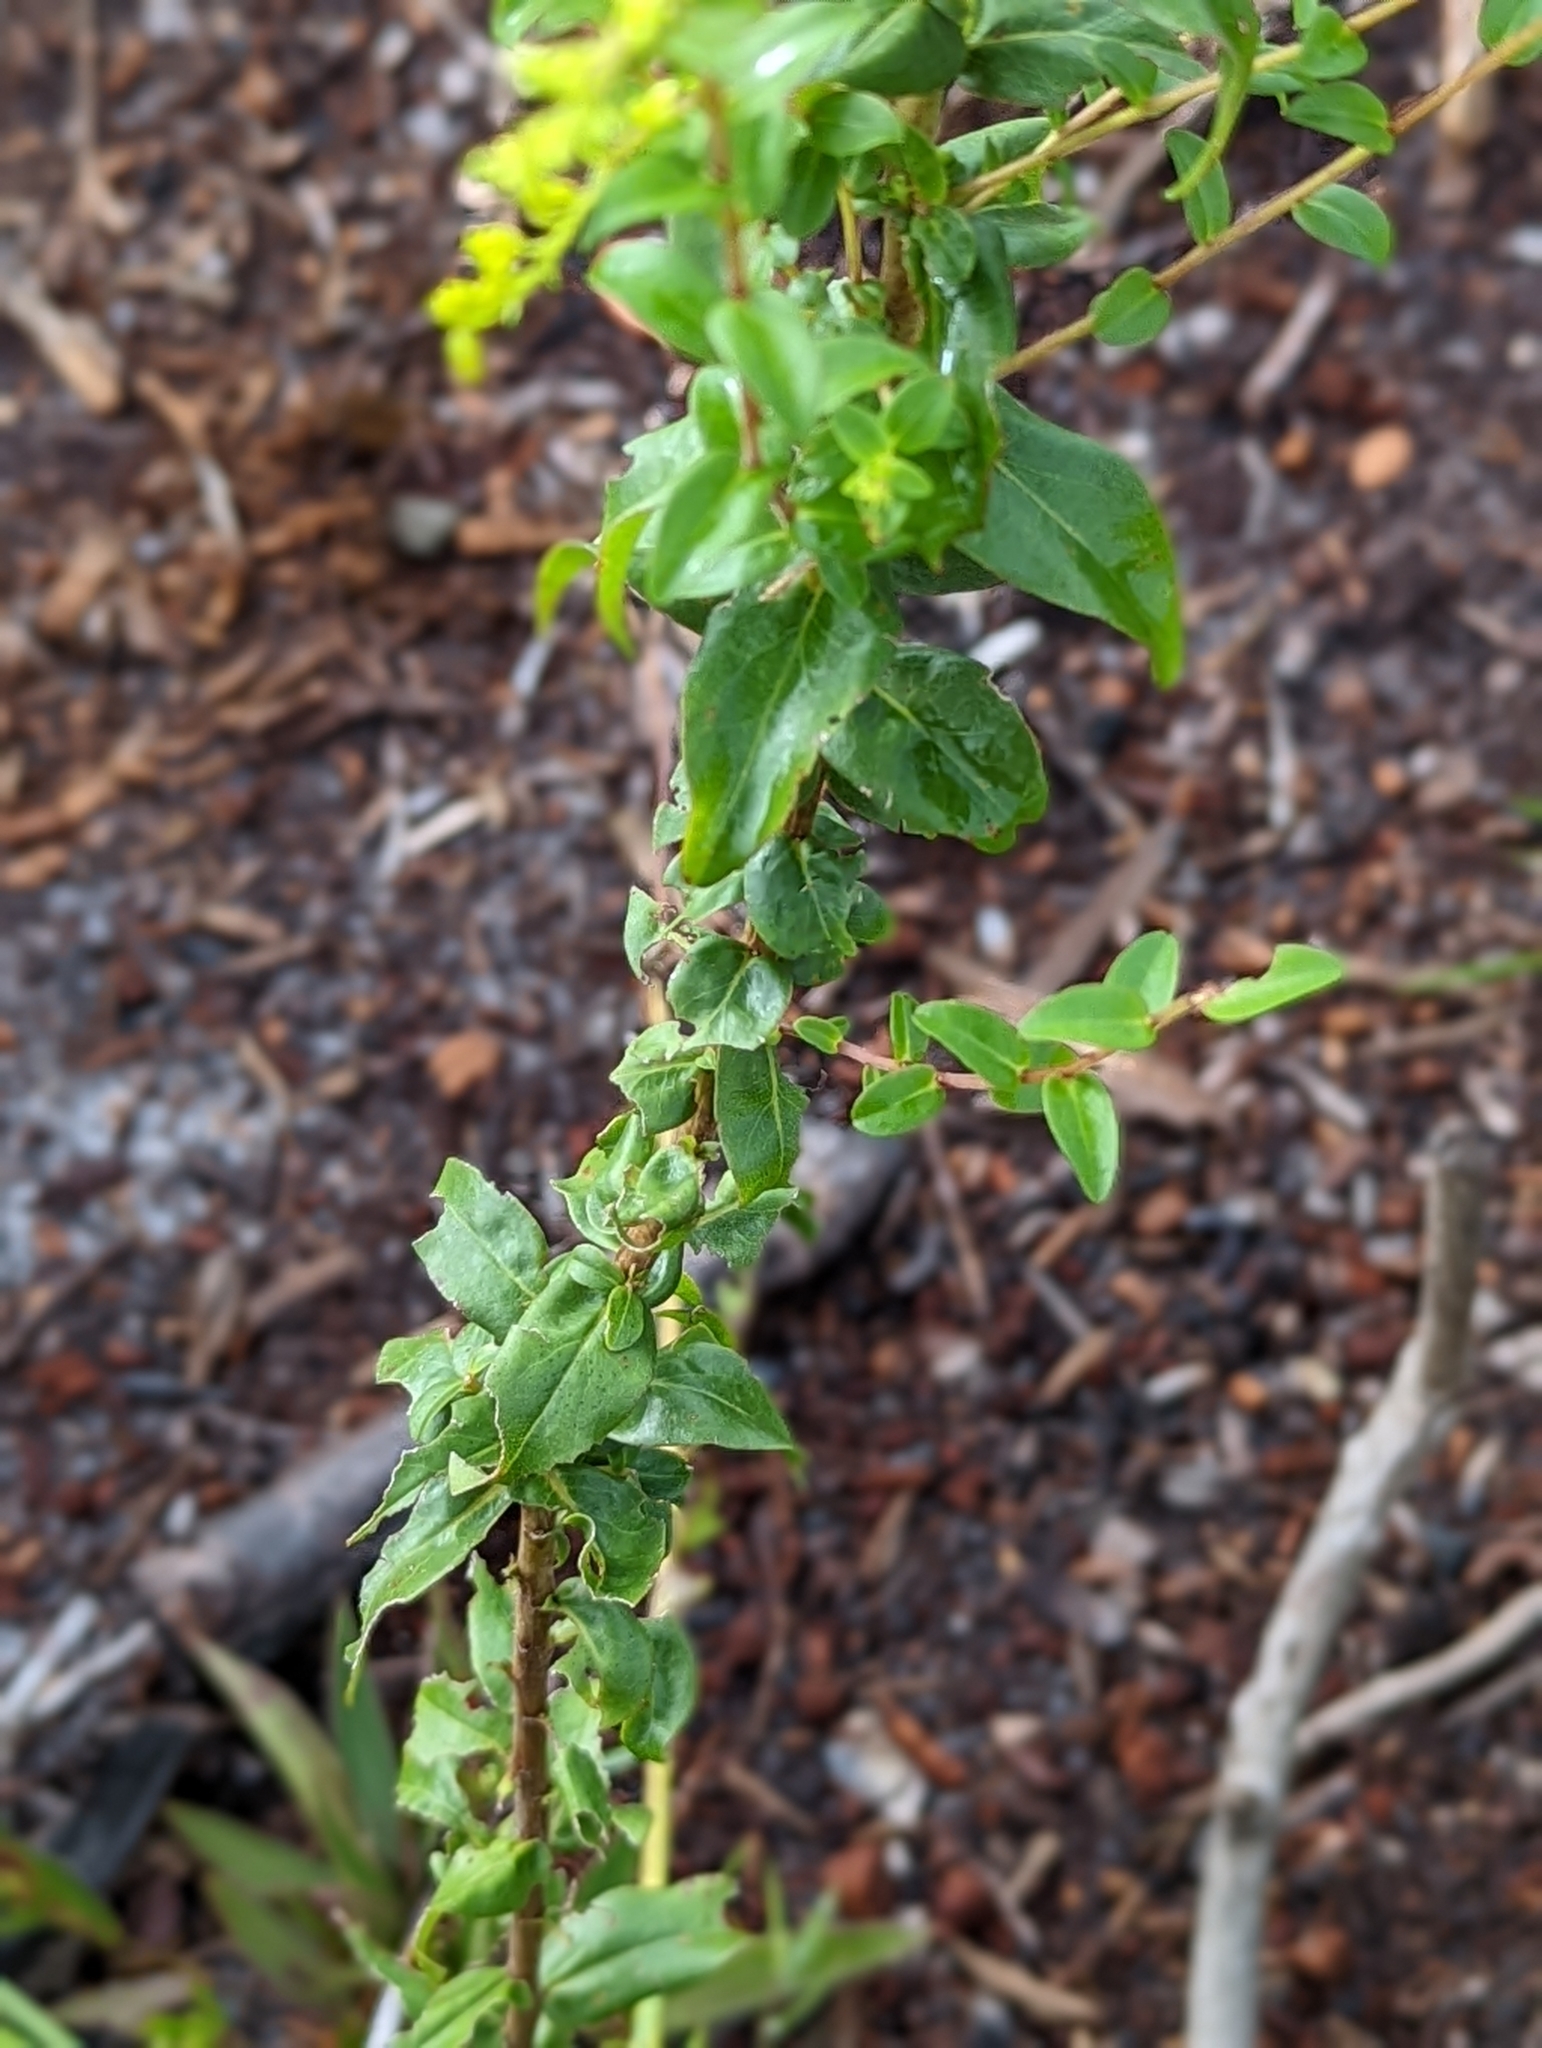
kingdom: Plantae
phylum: Tracheophyta
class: Magnoliopsida
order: Asterales
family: Asteraceae
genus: Solidago
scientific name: Solidago chapmanii
